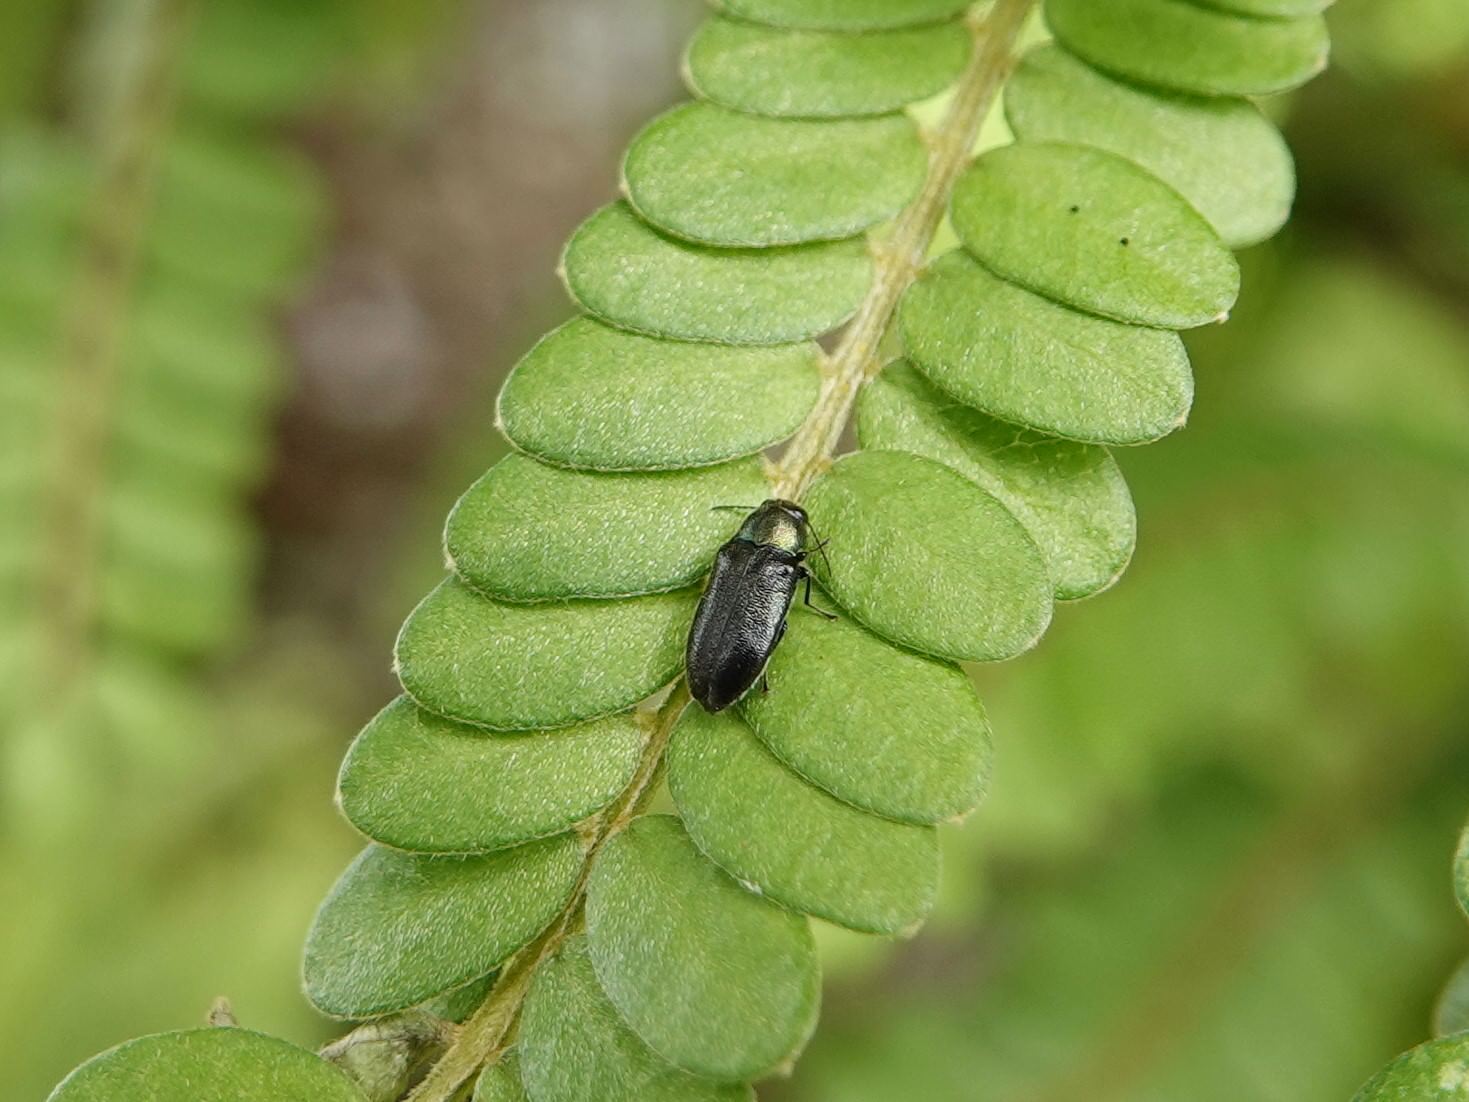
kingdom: Animalia
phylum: Arthropoda
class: Insecta
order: Coleoptera
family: Buprestidae
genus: Maoraxia
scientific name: Maoraxia eremita
